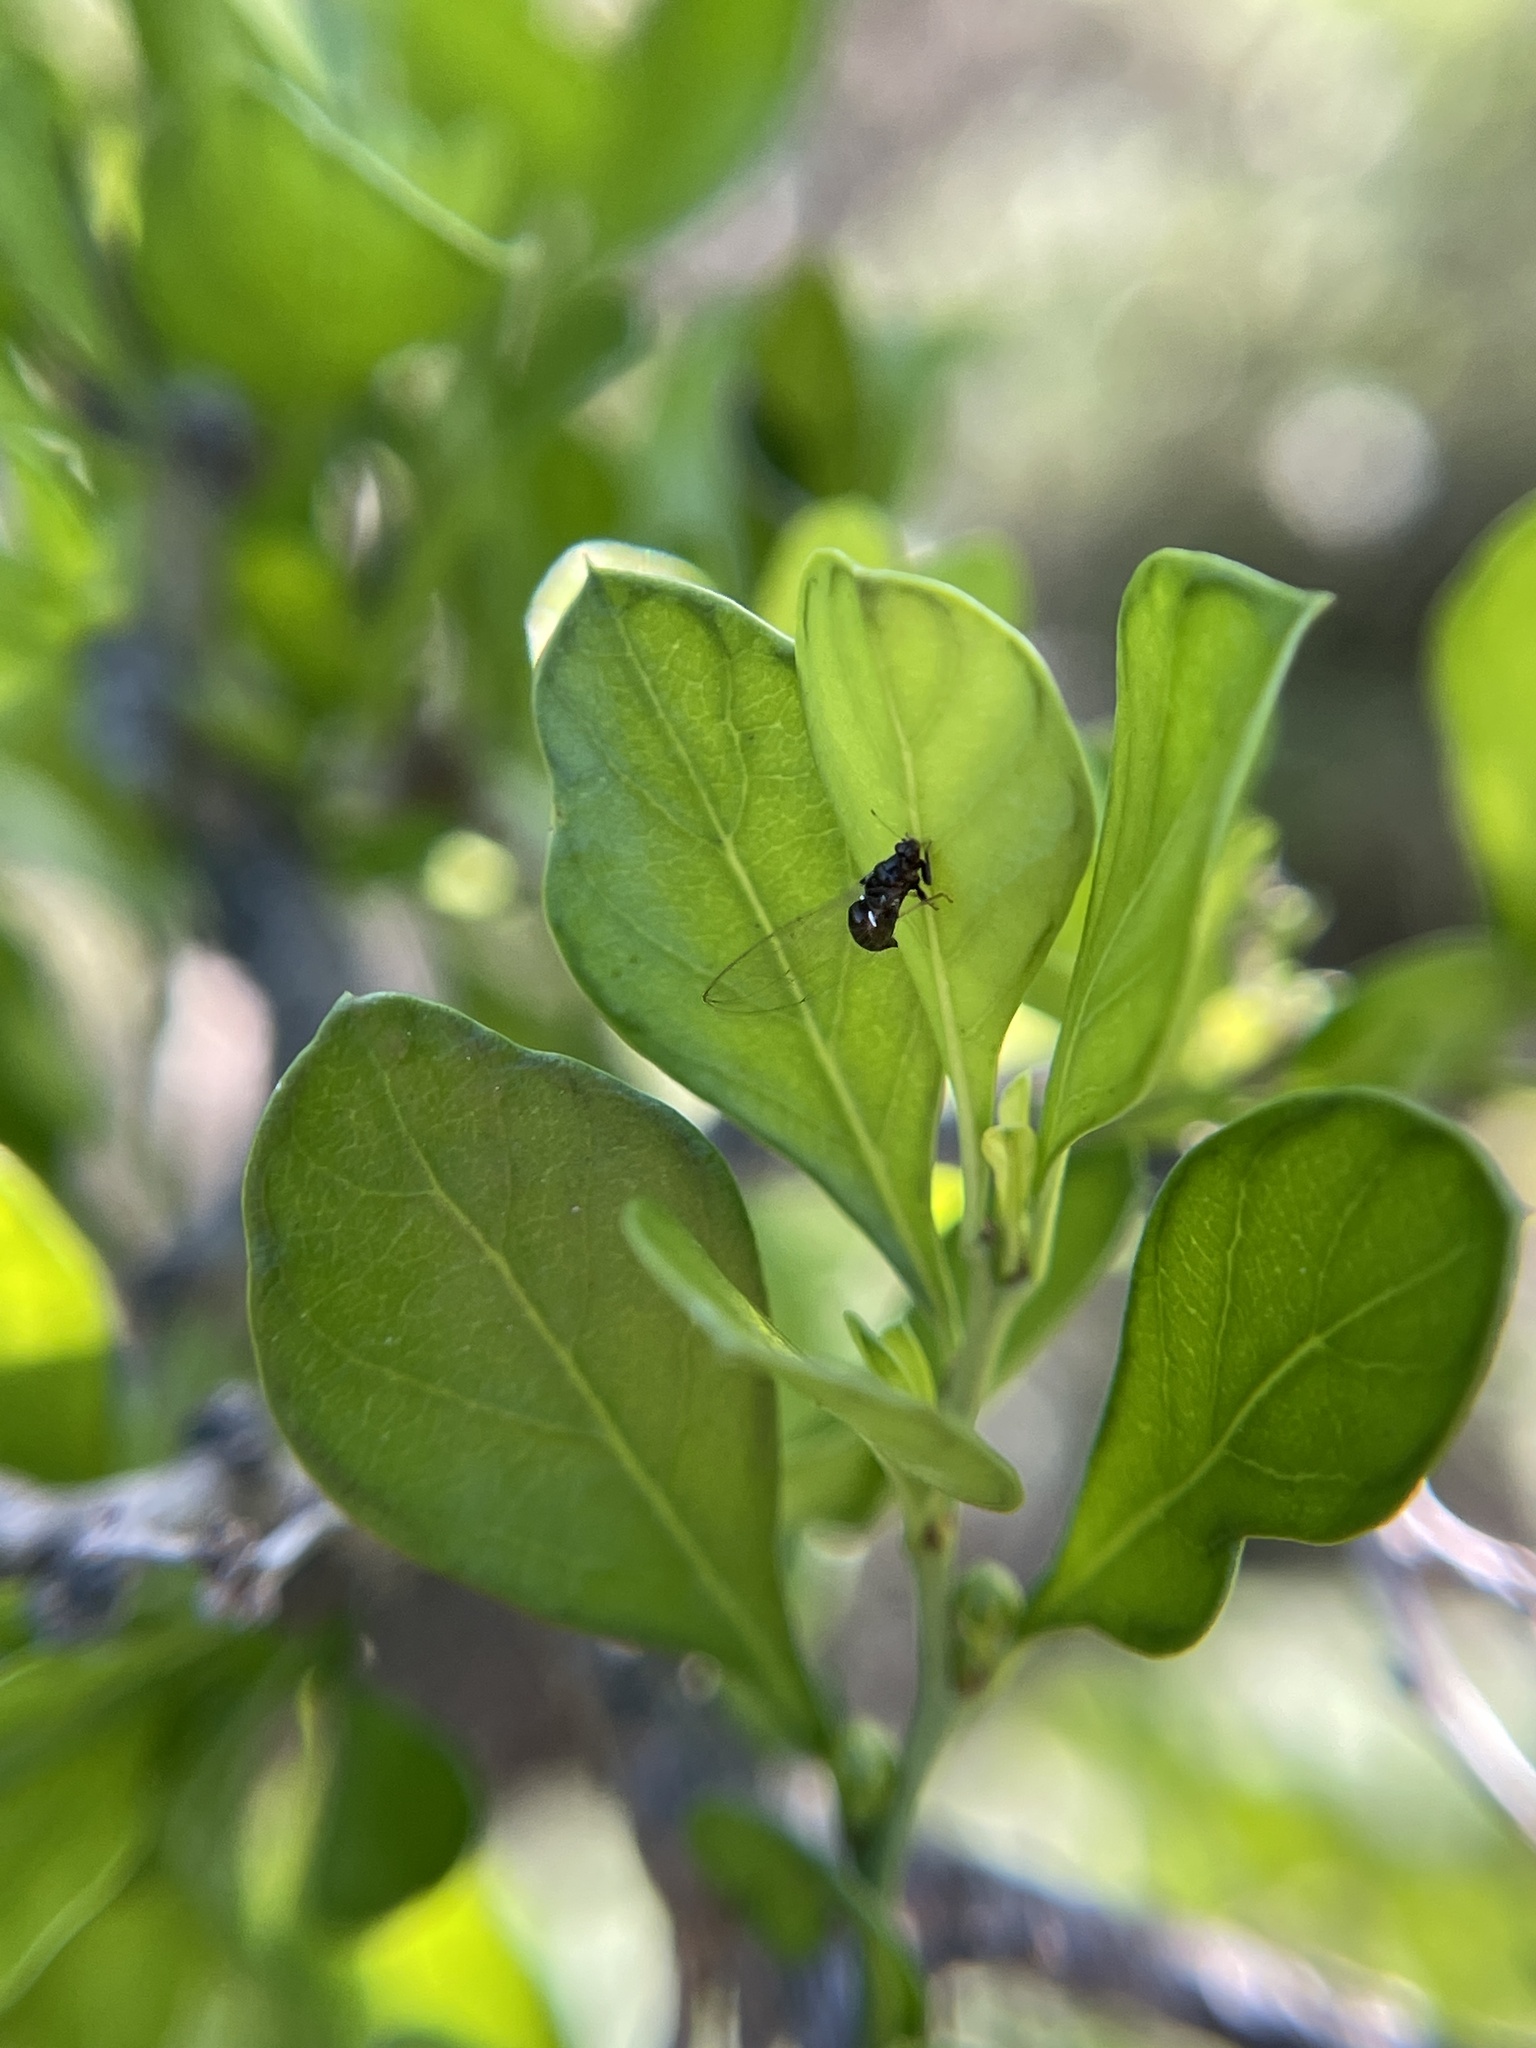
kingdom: Animalia
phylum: Arthropoda
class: Insecta
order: Hemiptera
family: Triozidae
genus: Baeoalitriozus
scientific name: Baeoalitriozus diospyri
